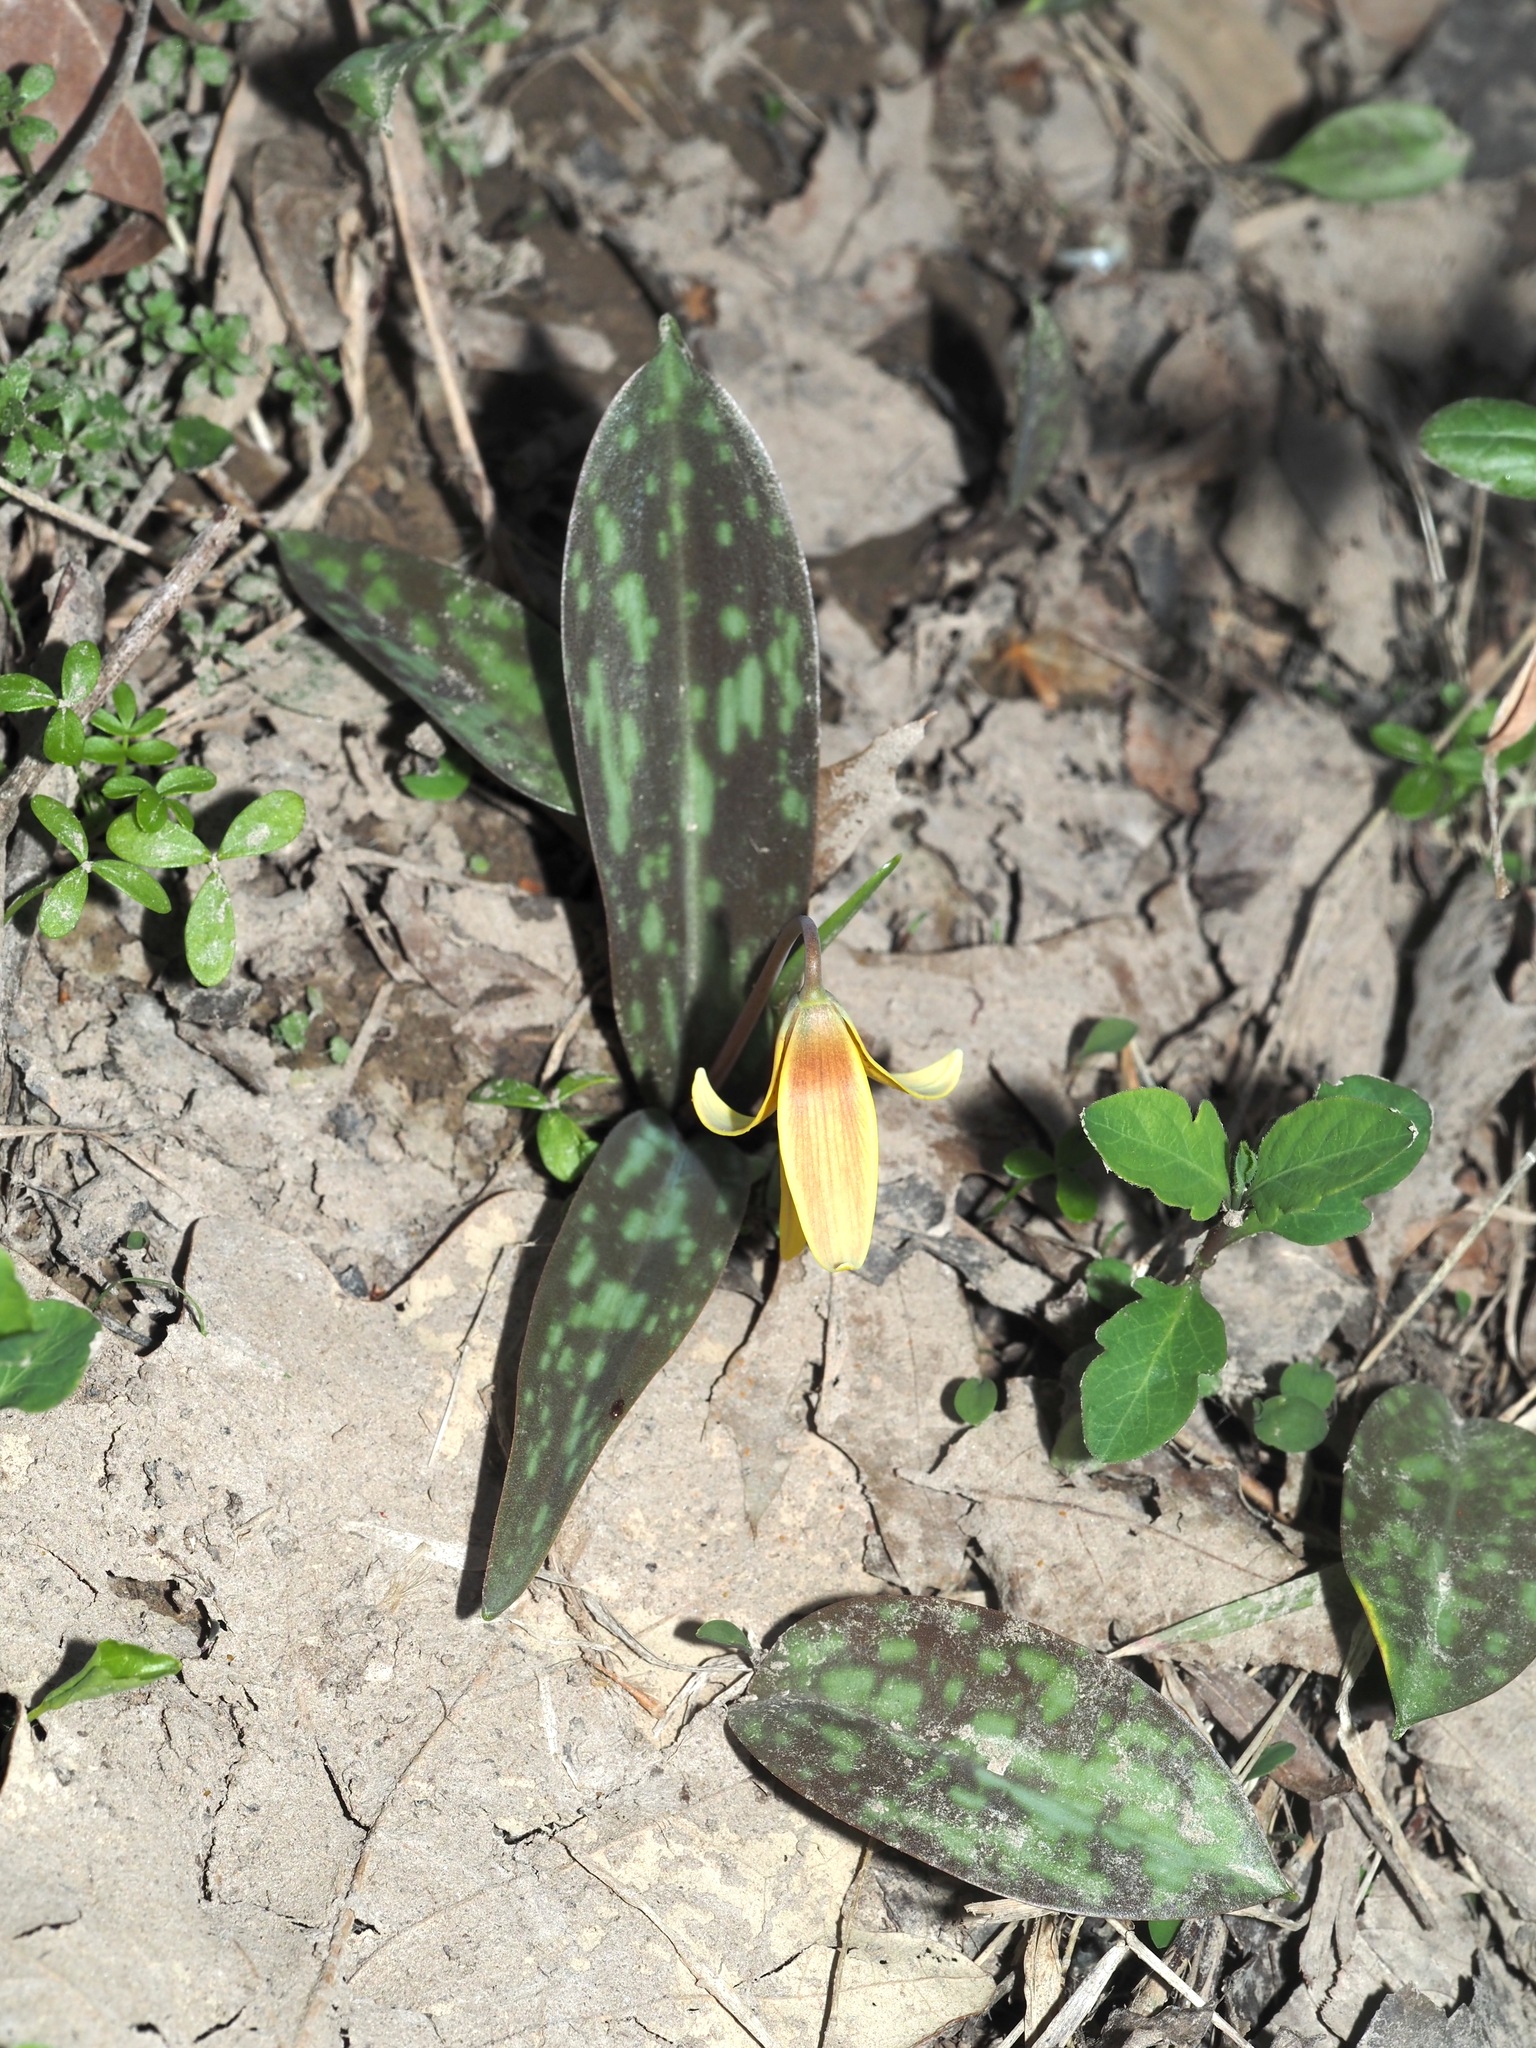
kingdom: Plantae
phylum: Tracheophyta
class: Liliopsida
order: Liliales
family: Liliaceae
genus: Erythronium
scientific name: Erythronium americanum
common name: Yellow adder's-tongue
